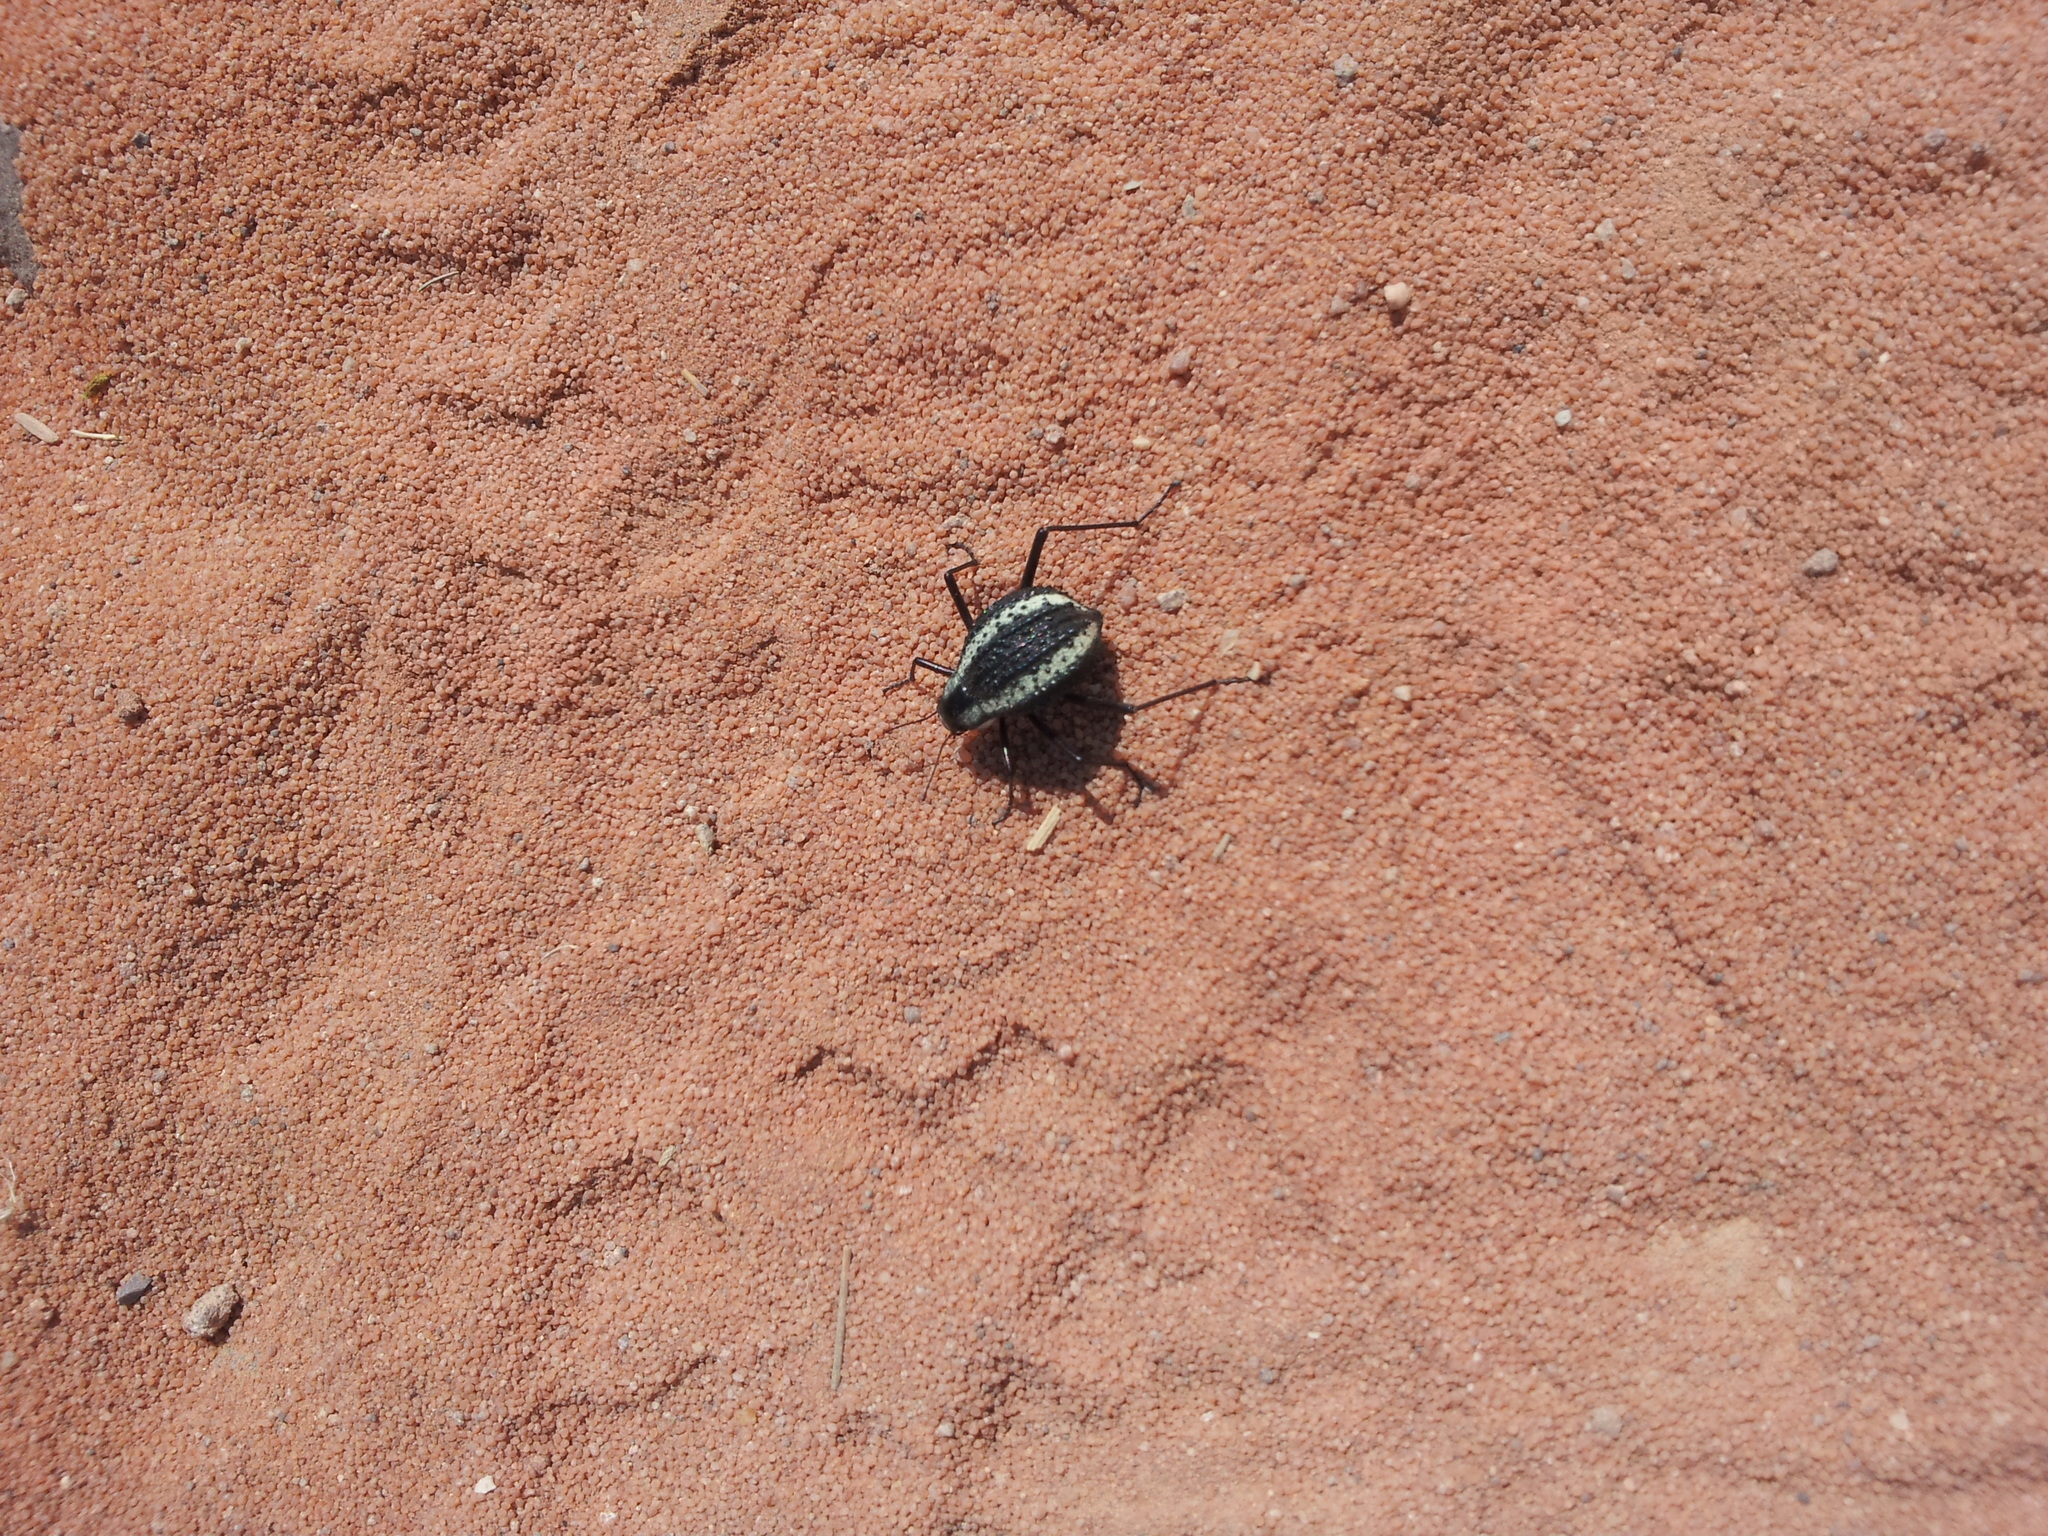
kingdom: Animalia
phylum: Arthropoda
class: Insecta
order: Coleoptera
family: Tenebrionidae
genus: Stenocara
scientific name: Stenocara
